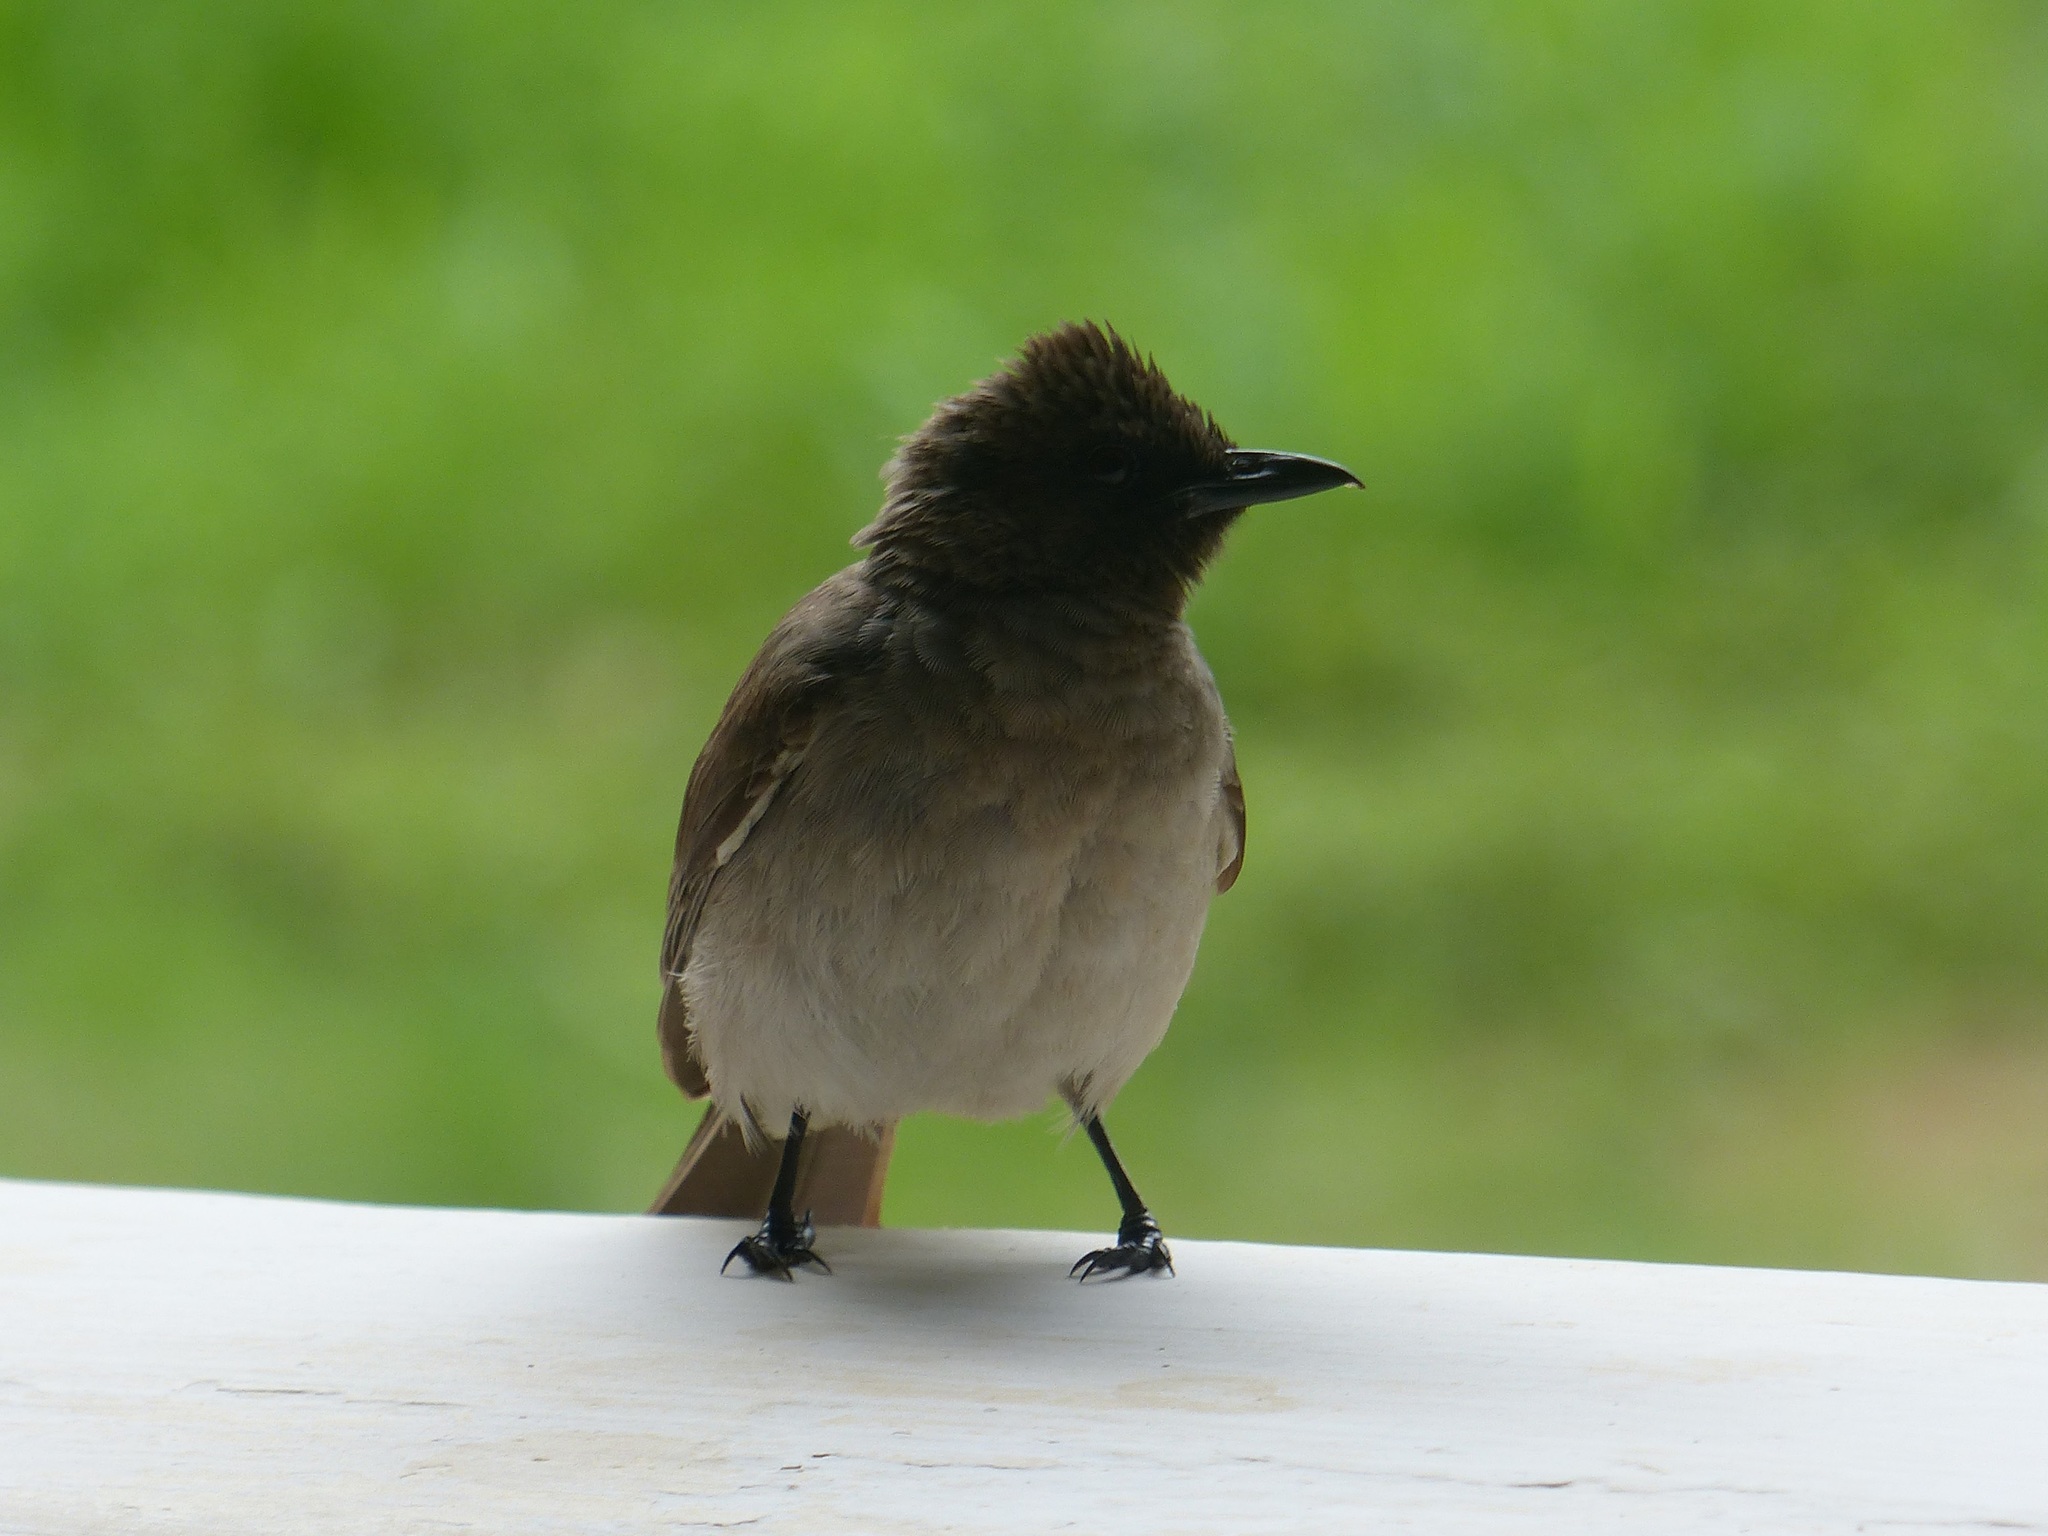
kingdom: Animalia
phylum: Chordata
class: Aves
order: Passeriformes
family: Pycnonotidae
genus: Pycnonotus
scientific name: Pycnonotus barbatus
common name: Common bulbul
